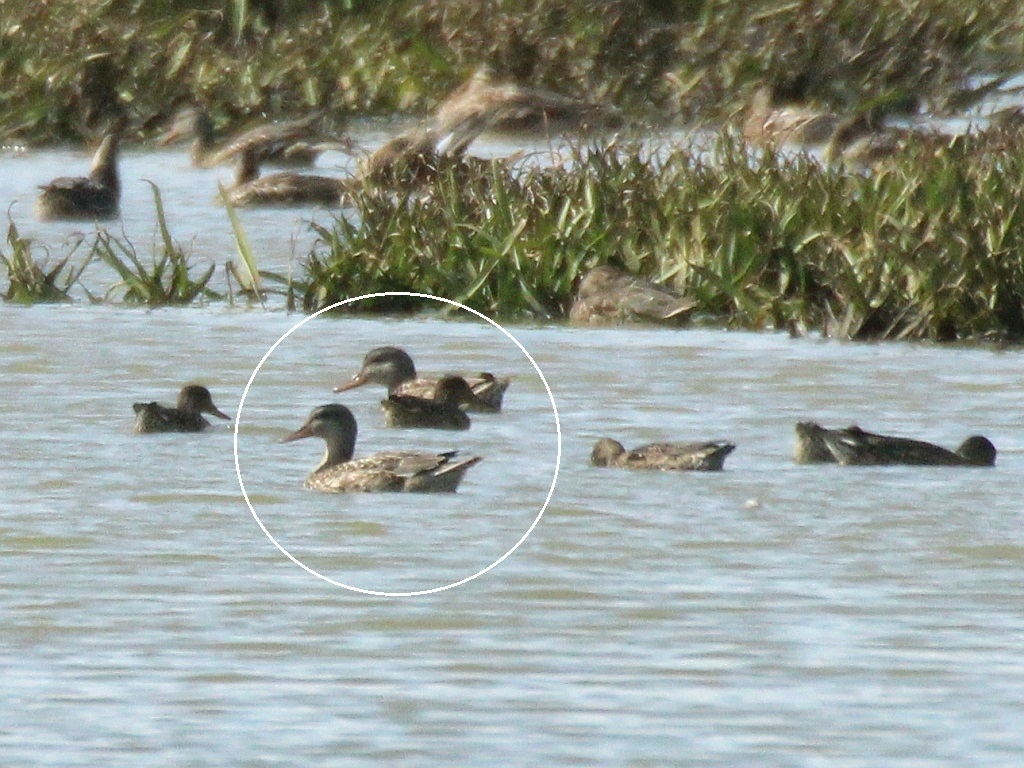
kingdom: Animalia
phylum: Chordata
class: Aves
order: Anseriformes
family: Anatidae
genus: Mareca
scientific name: Mareca strepera
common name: Gadwall
